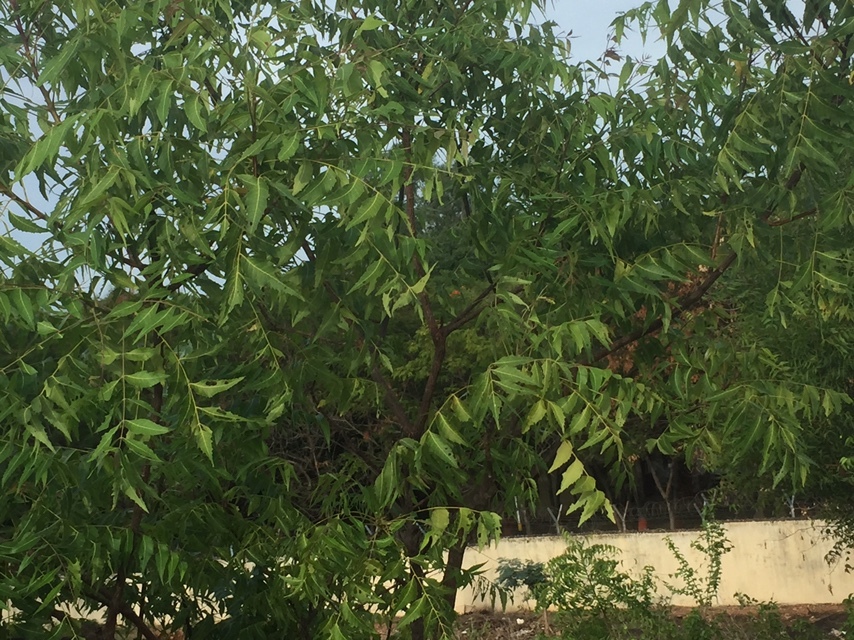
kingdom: Plantae
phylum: Tracheophyta
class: Magnoliopsida
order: Sapindales
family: Meliaceae
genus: Azadirachta
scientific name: Azadirachta indica
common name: Neem
